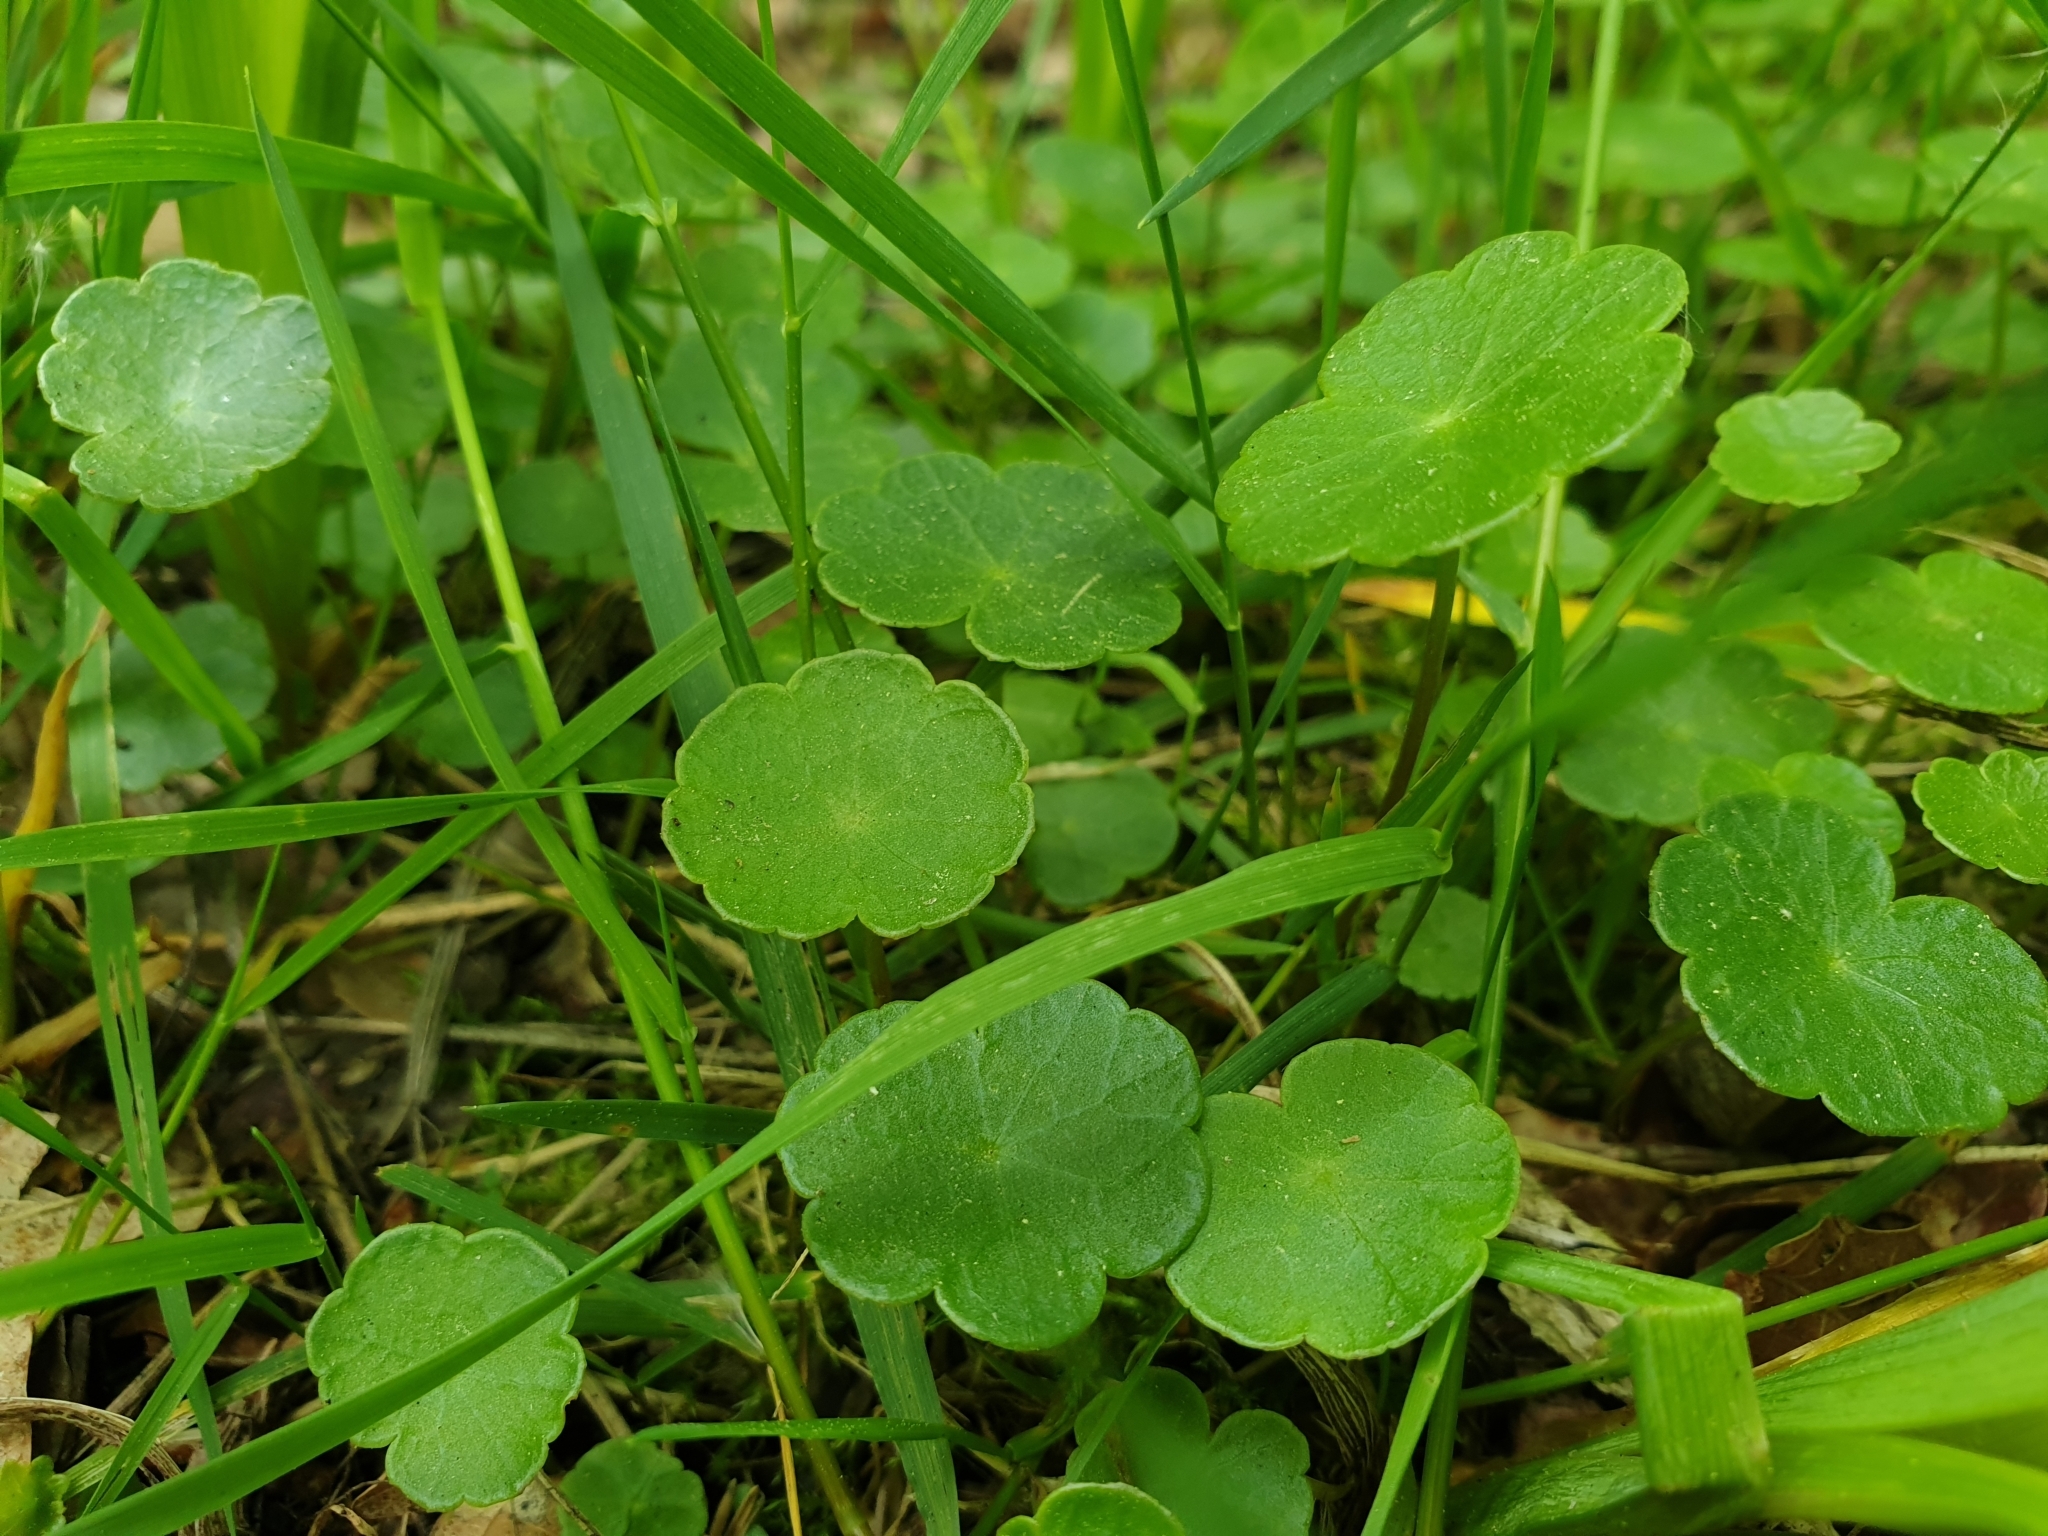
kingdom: Plantae
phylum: Tracheophyta
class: Magnoliopsida
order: Apiales
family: Araliaceae
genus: Hydrocotyle
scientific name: Hydrocotyle vulgaris
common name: Marsh pennywort
